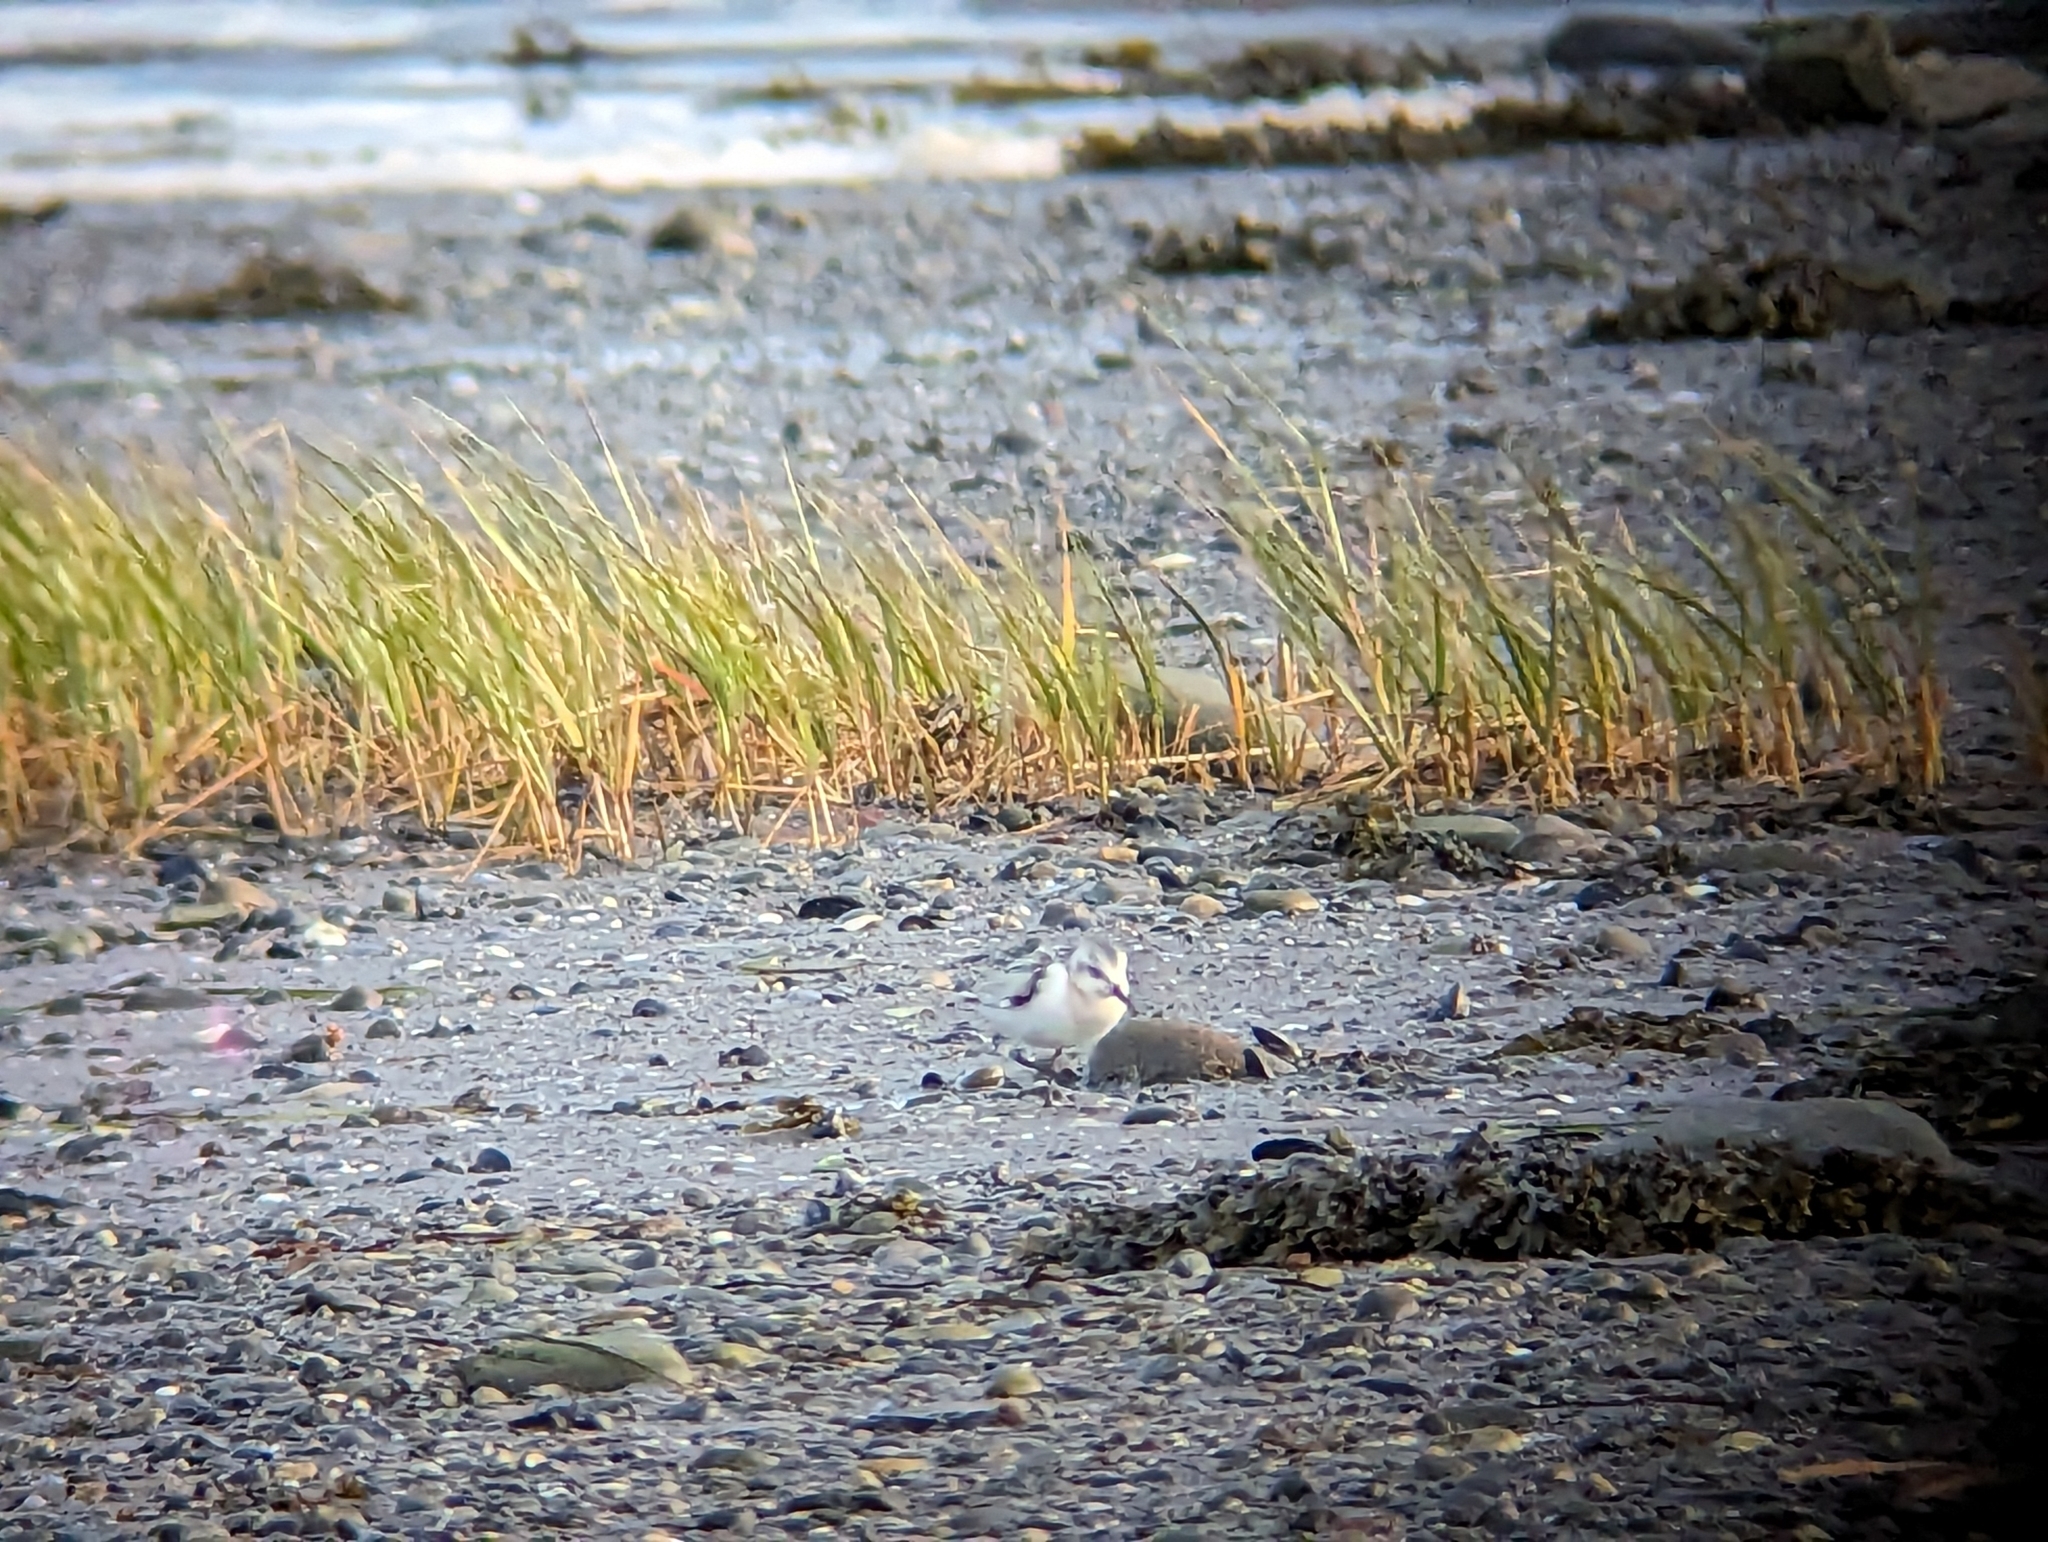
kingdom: Animalia
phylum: Chordata
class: Aves
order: Charadriiformes
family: Scolopacidae
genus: Calidris
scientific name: Calidris alba
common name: Sanderling
